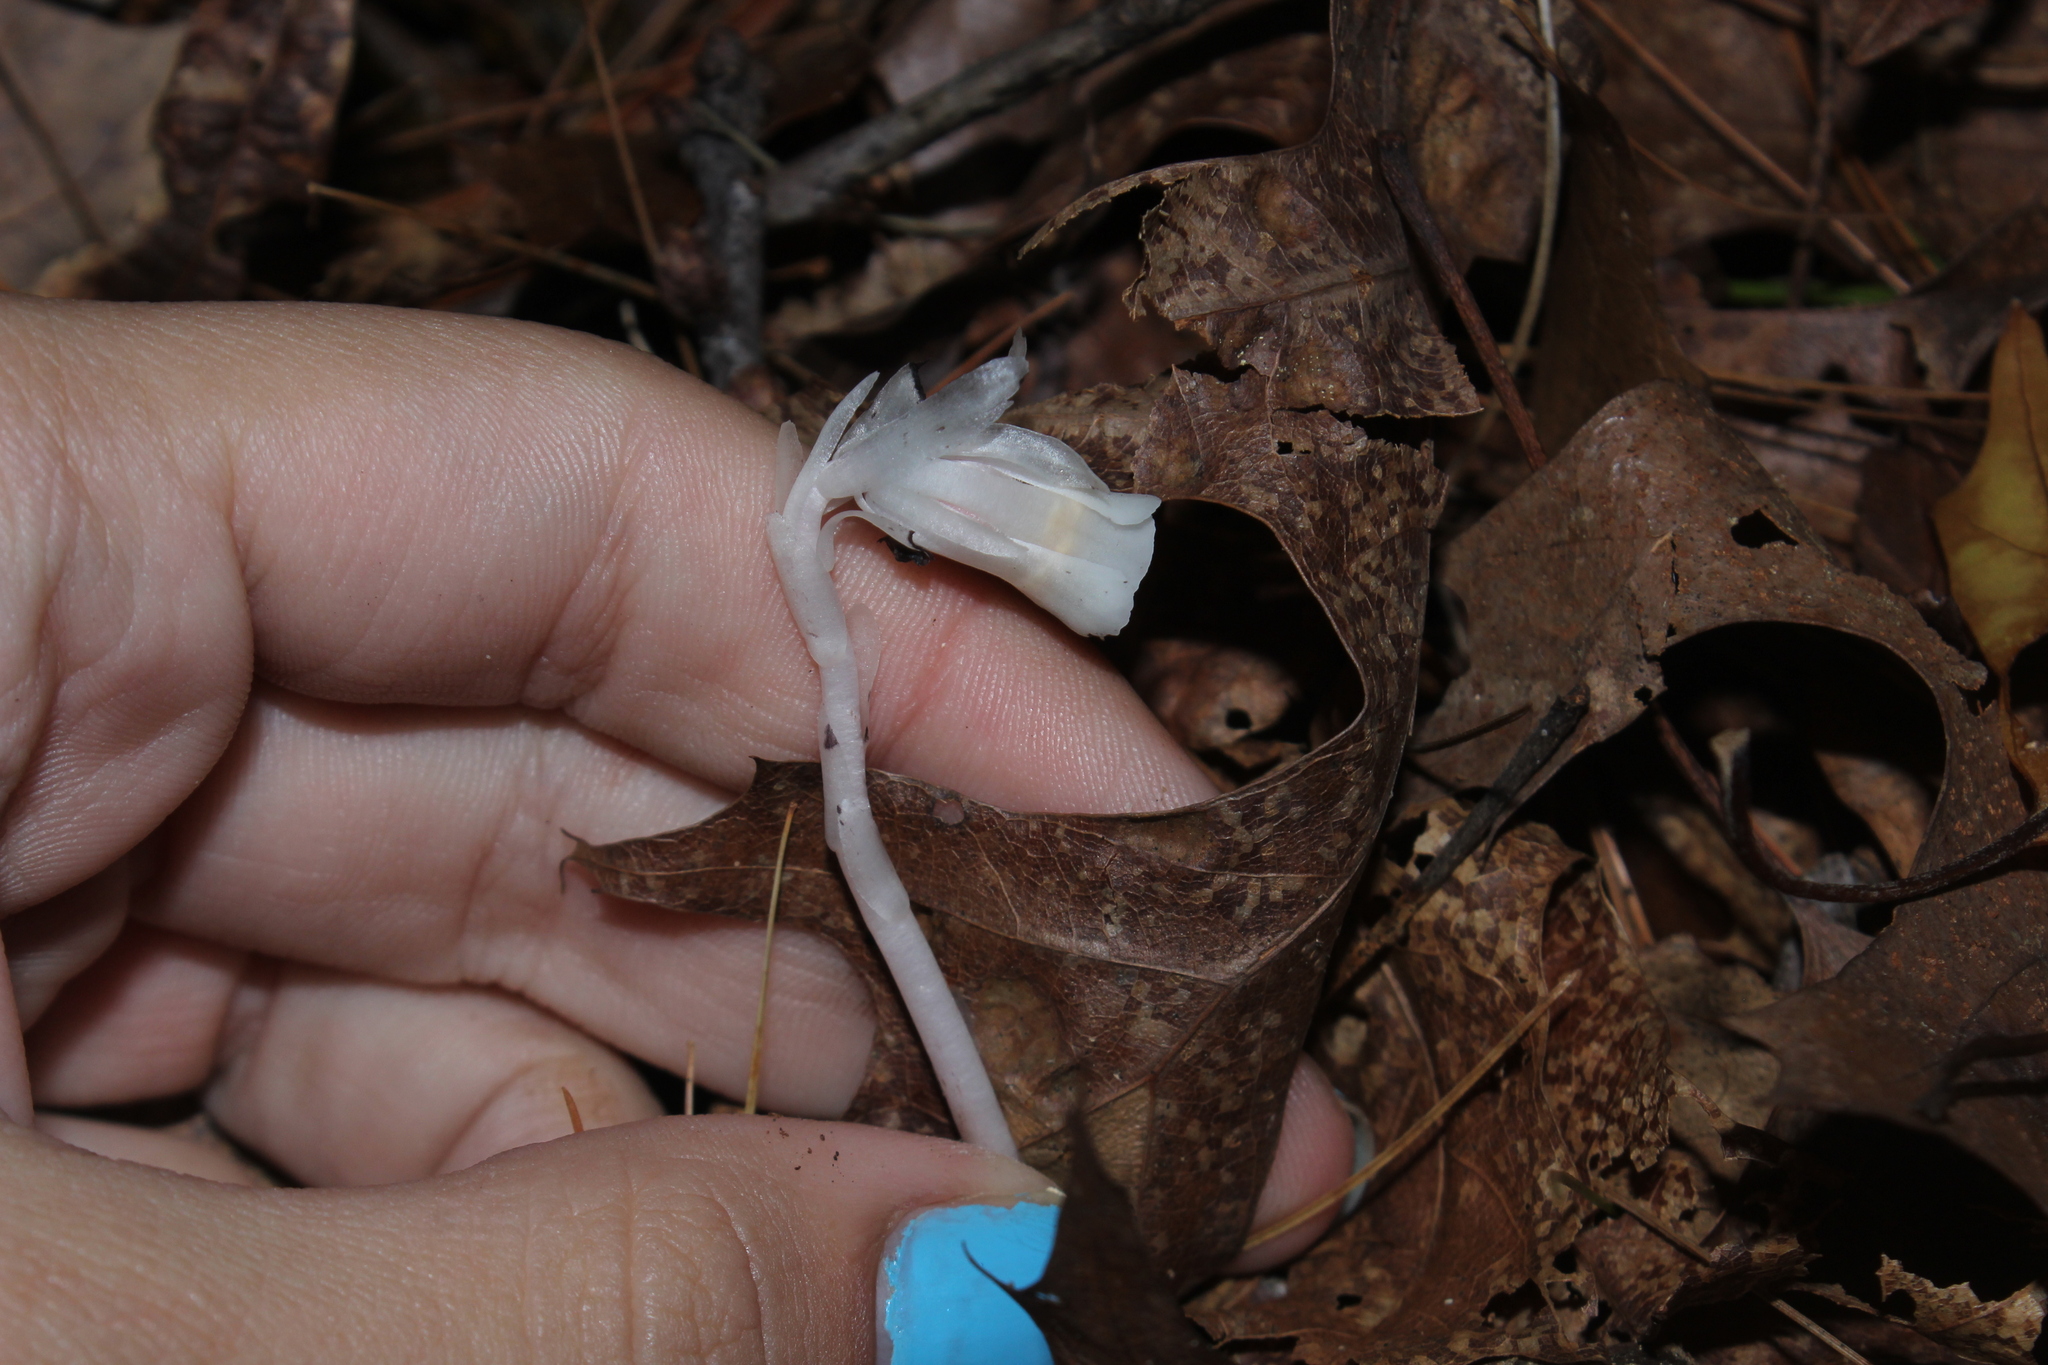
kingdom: Plantae
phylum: Tracheophyta
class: Magnoliopsida
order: Ericales
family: Ericaceae
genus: Monotropa
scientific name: Monotropa uniflora
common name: Convulsion root
